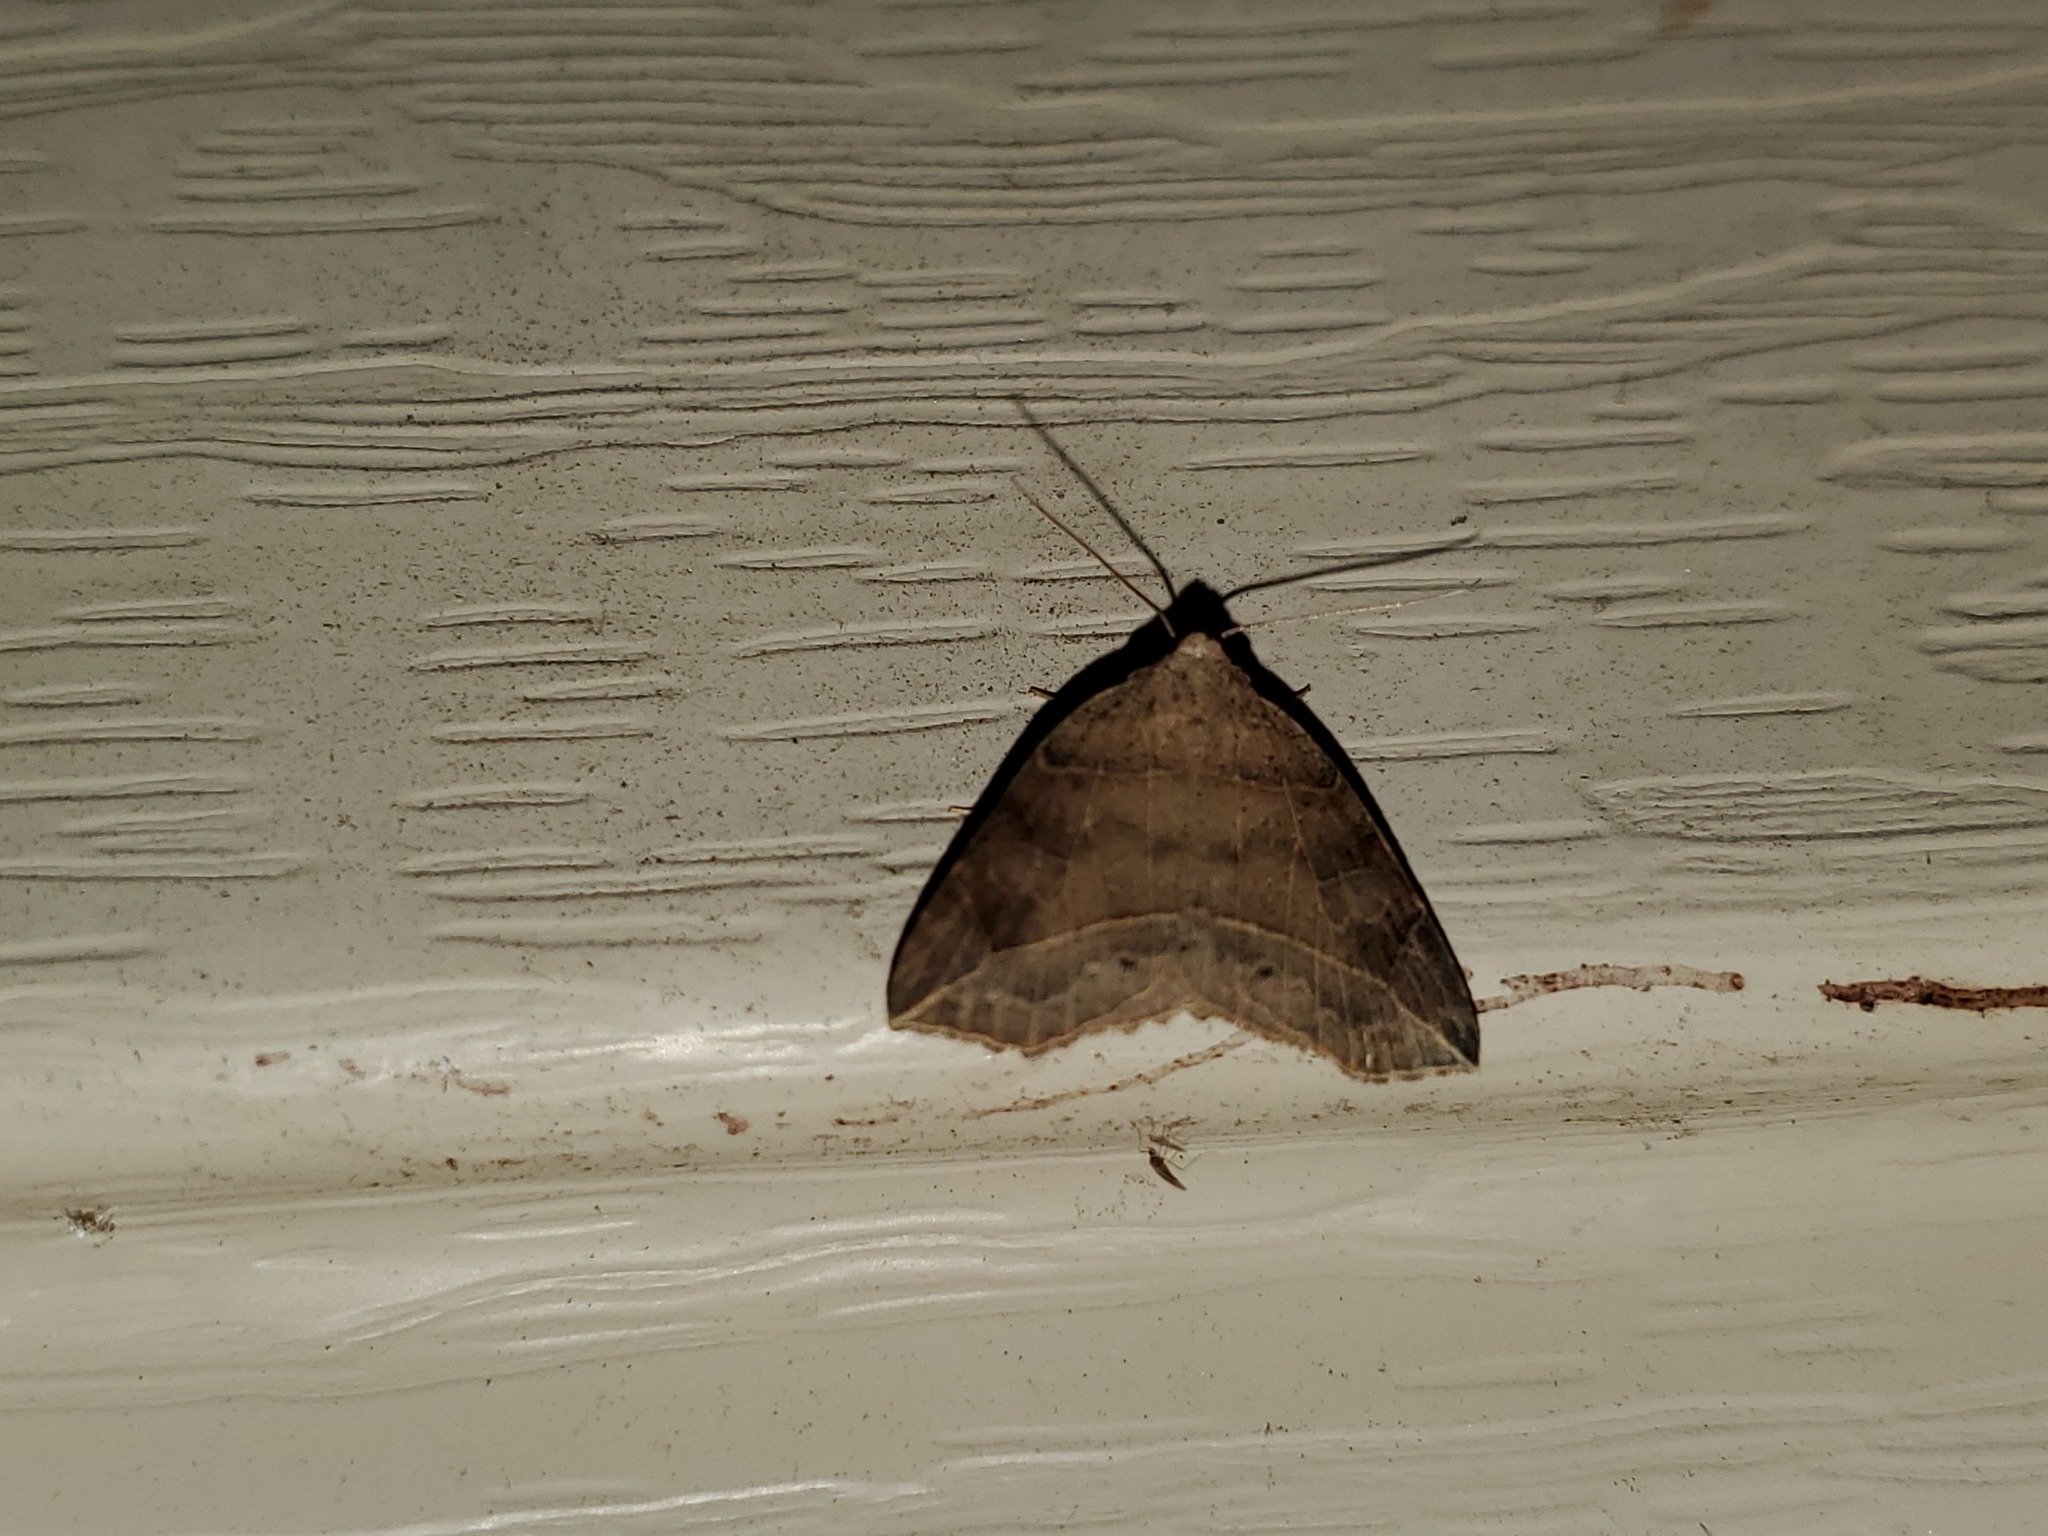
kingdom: Animalia
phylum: Arthropoda
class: Insecta
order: Lepidoptera
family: Erebidae
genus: Isogona
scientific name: Isogona tenuis
